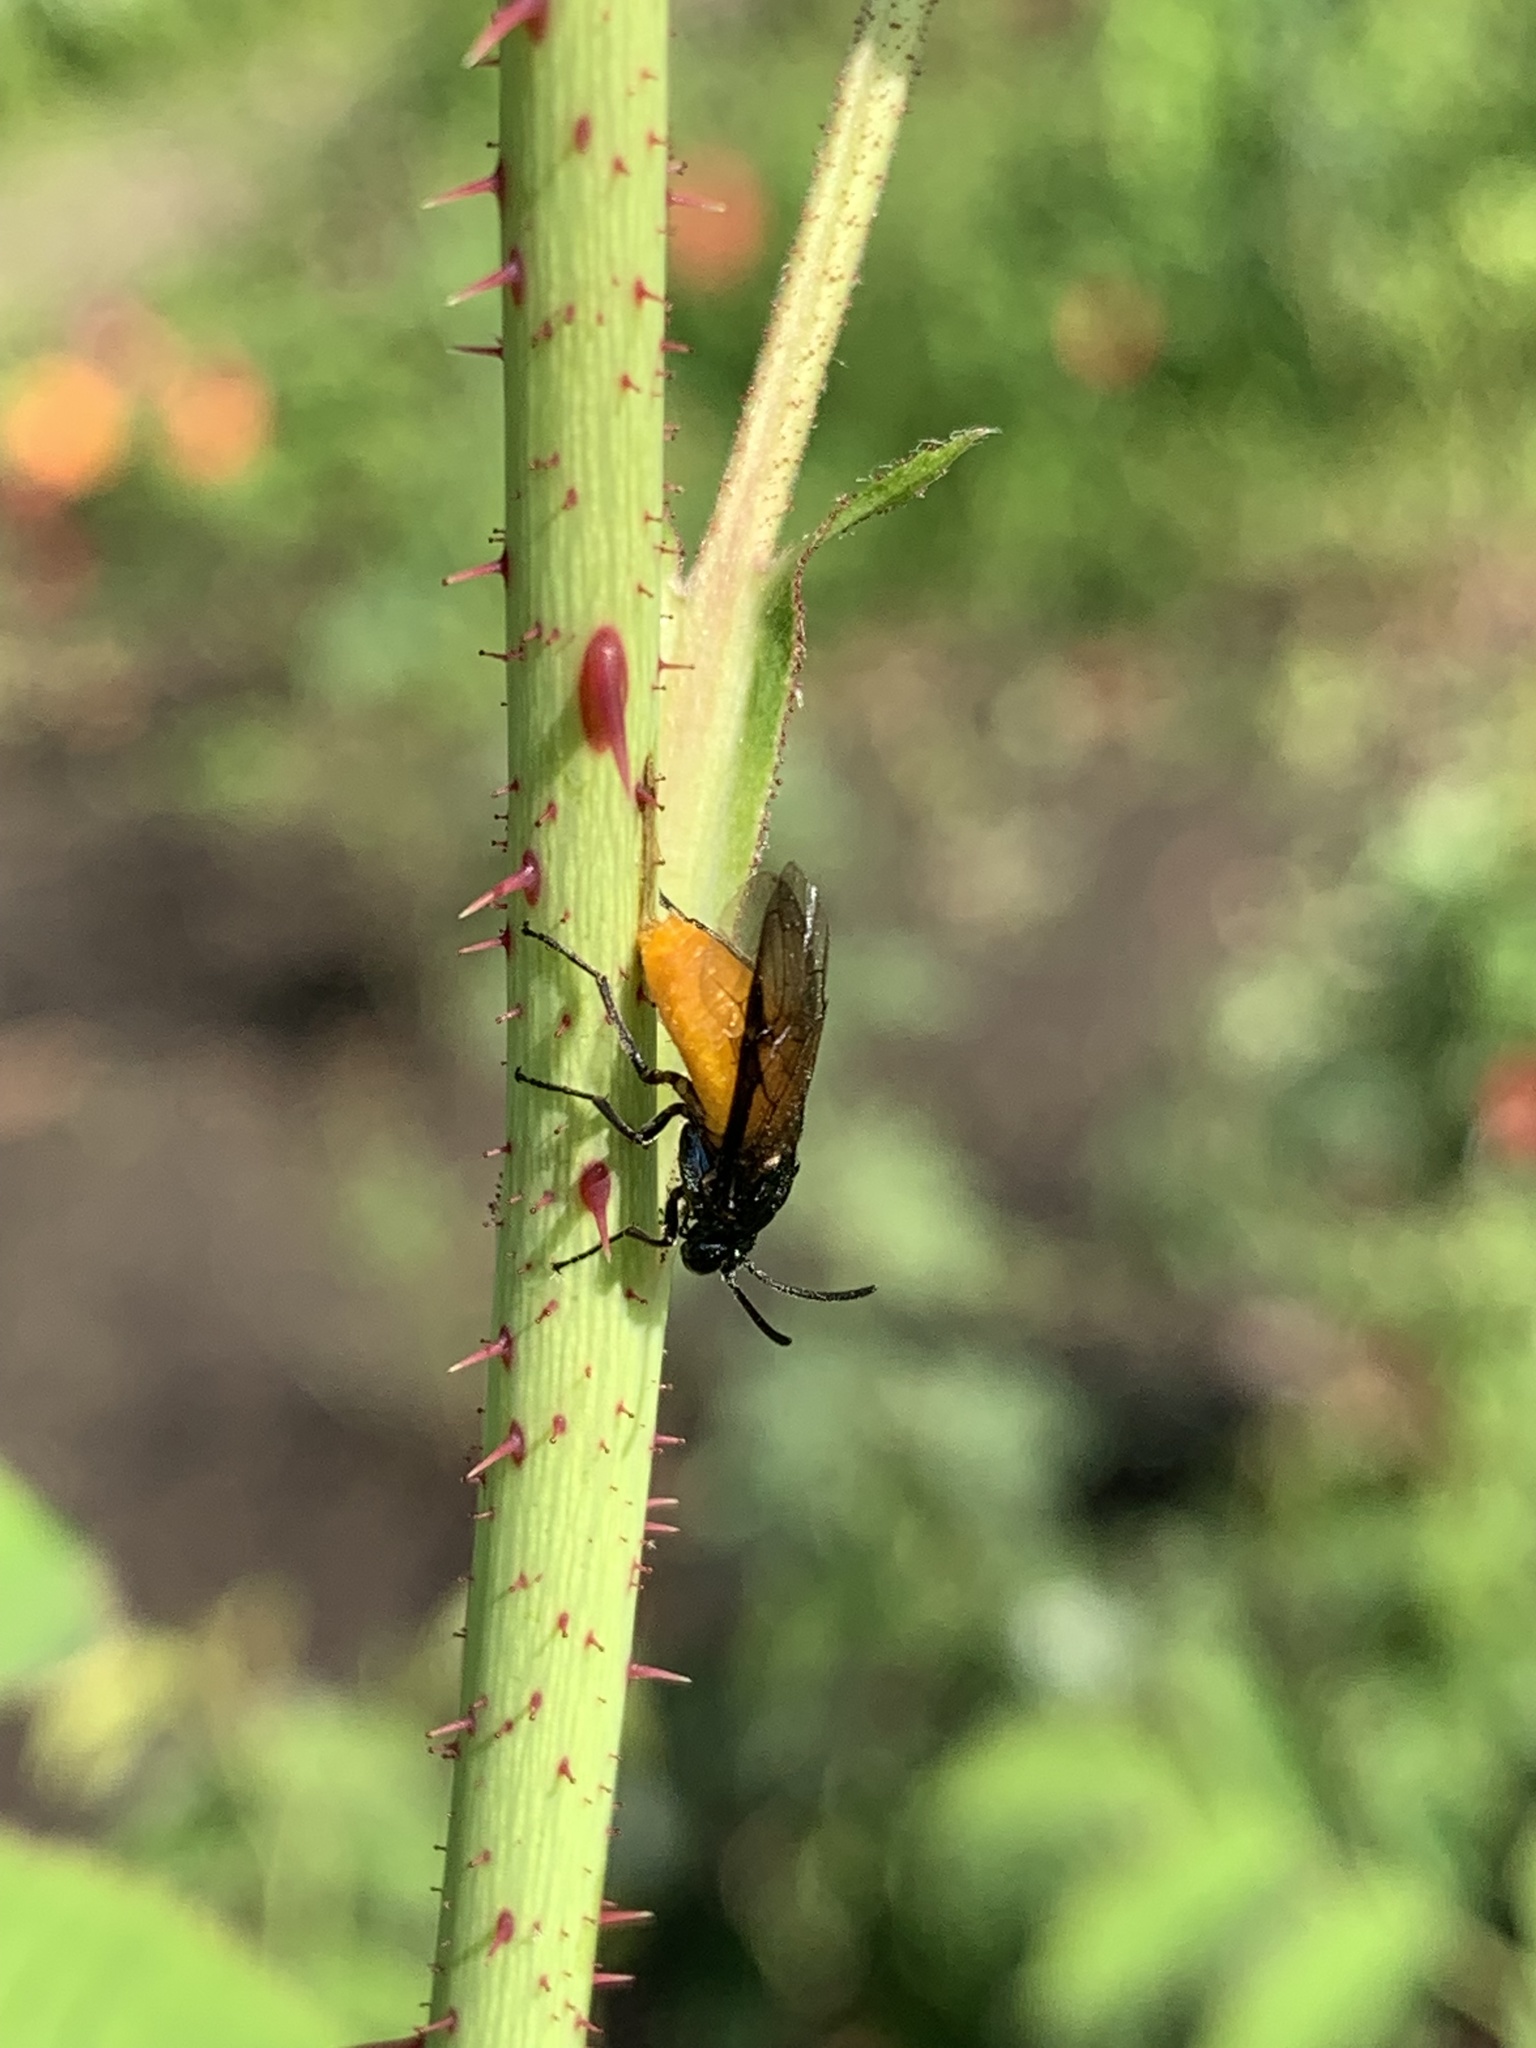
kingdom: Animalia
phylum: Arthropoda
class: Insecta
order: Hymenoptera
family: Argidae
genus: Arge
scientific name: Arge pagana
